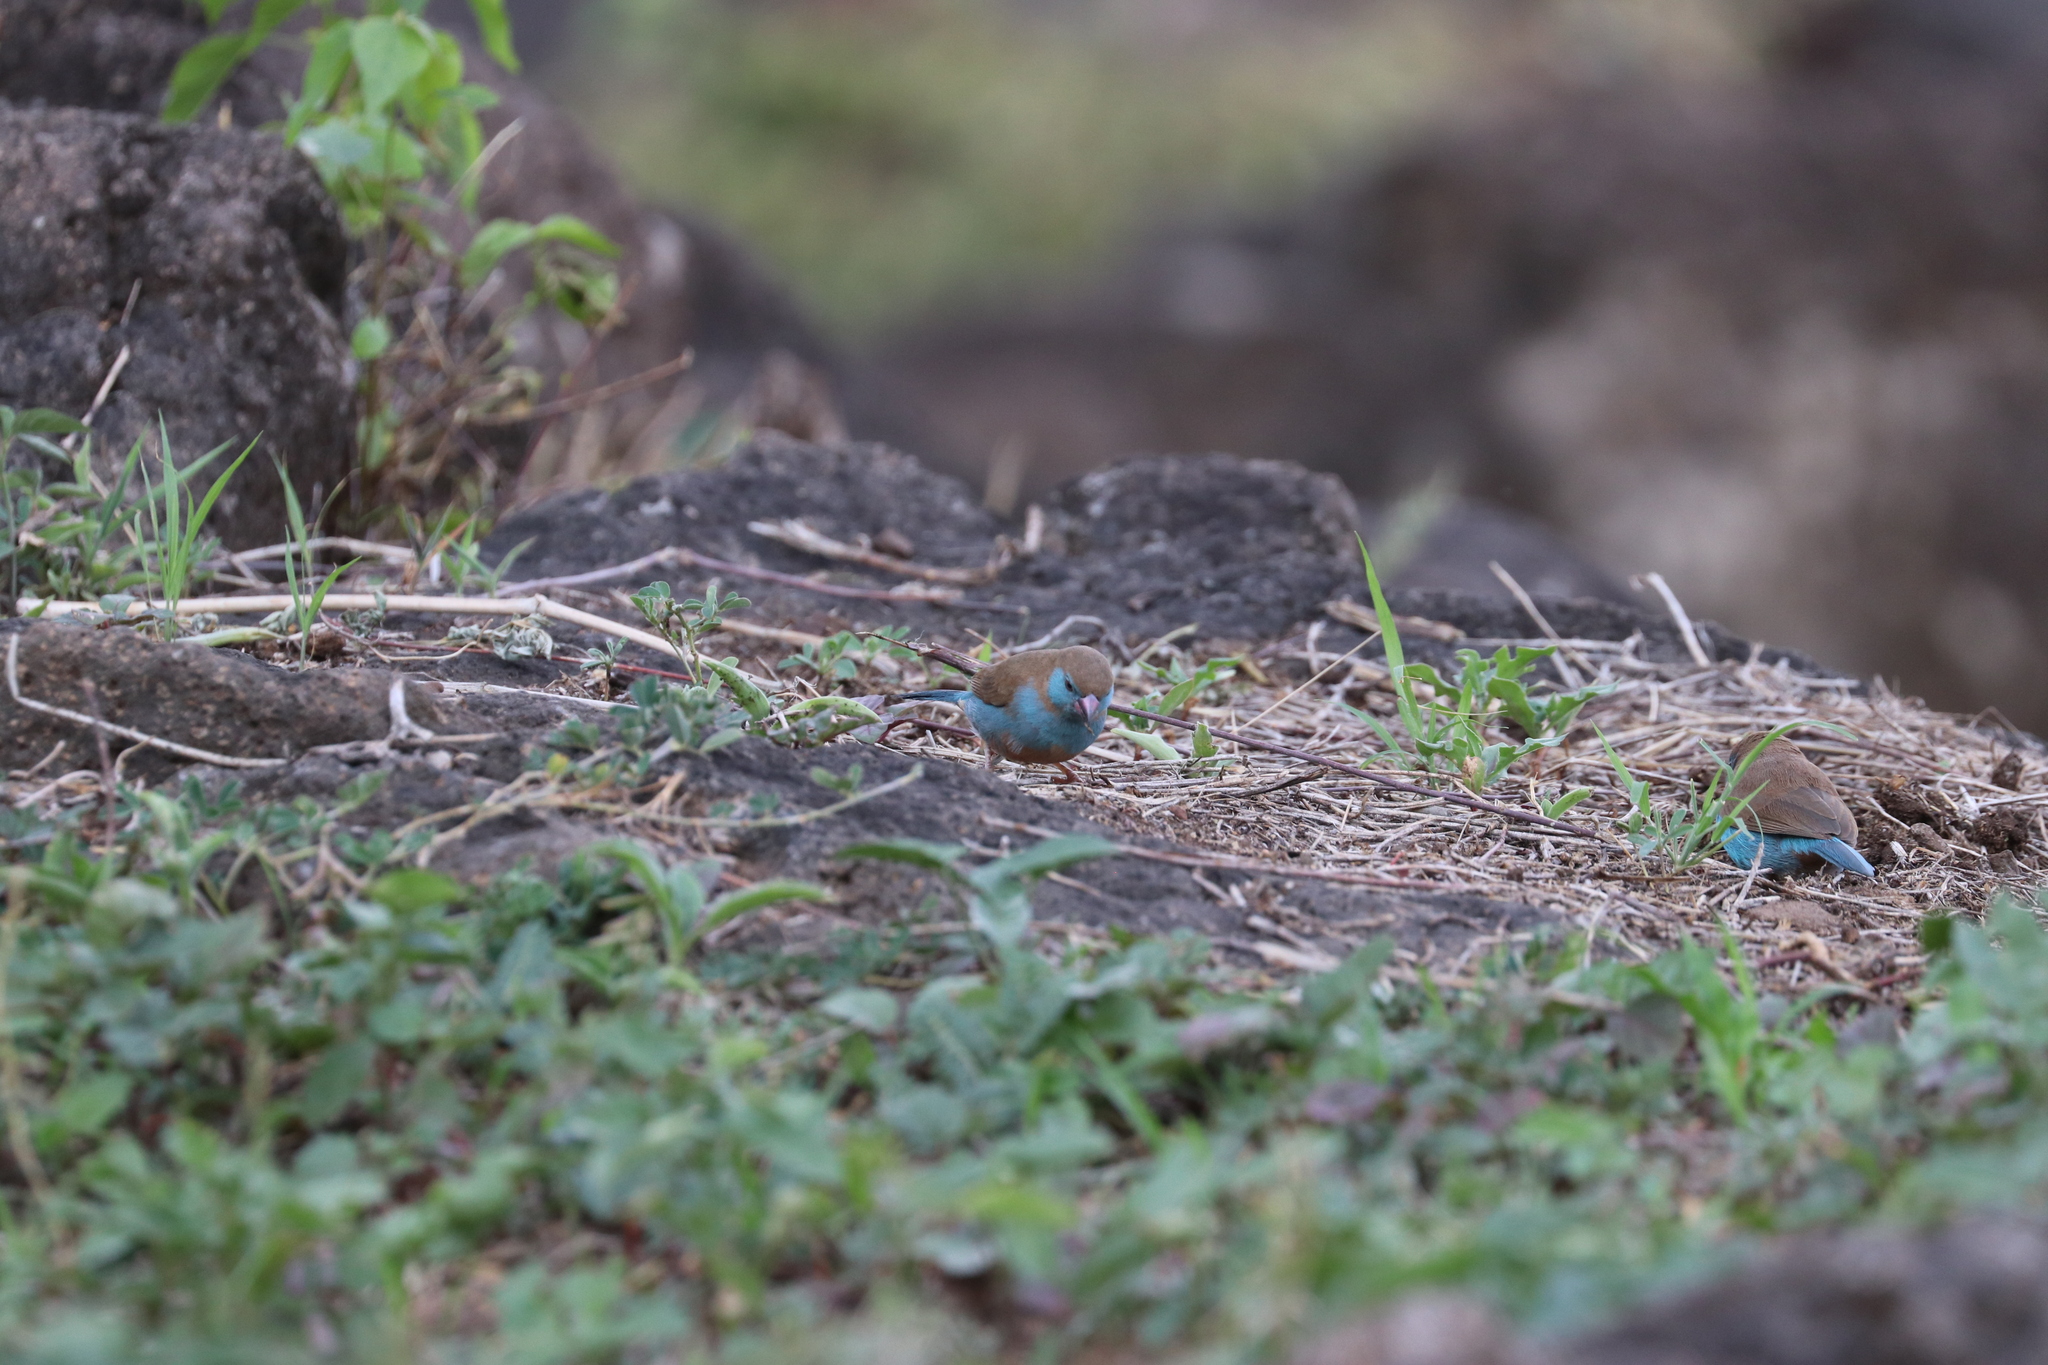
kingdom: Animalia
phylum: Chordata
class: Aves
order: Passeriformes
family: Estrildidae
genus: Uraeginthus
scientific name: Uraeginthus bengalus
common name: Red-cheeked cordon-bleu
